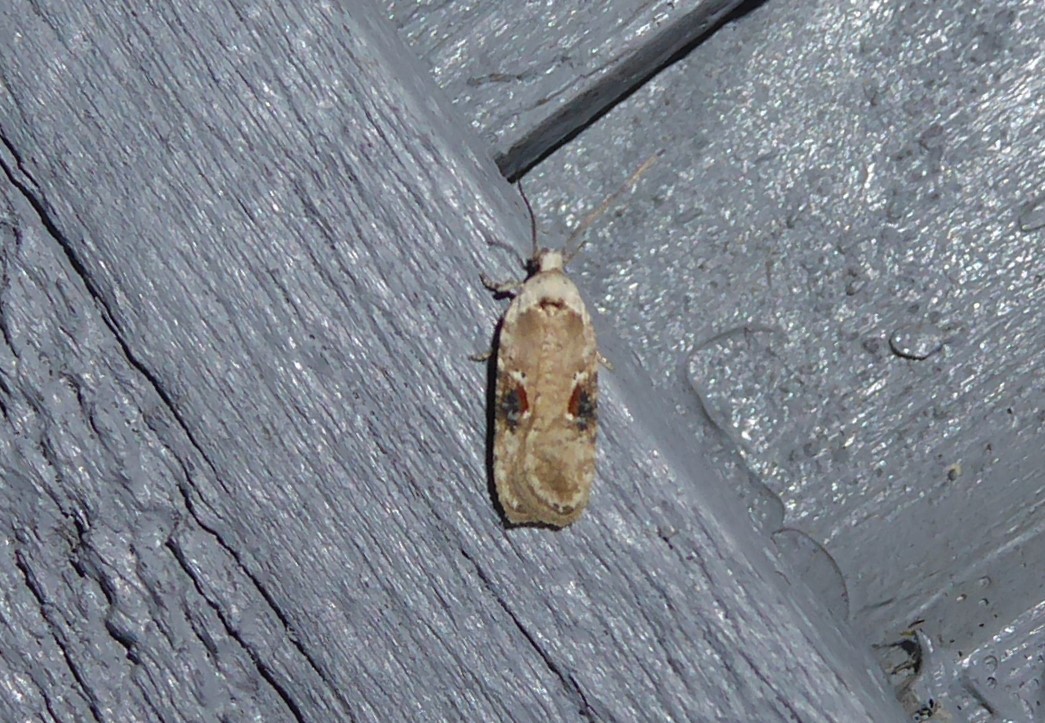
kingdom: Animalia
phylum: Arthropoda
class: Insecta
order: Lepidoptera
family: Depressariidae
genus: Agonopterix
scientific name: Agonopterix alstroemeriana
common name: Moth
